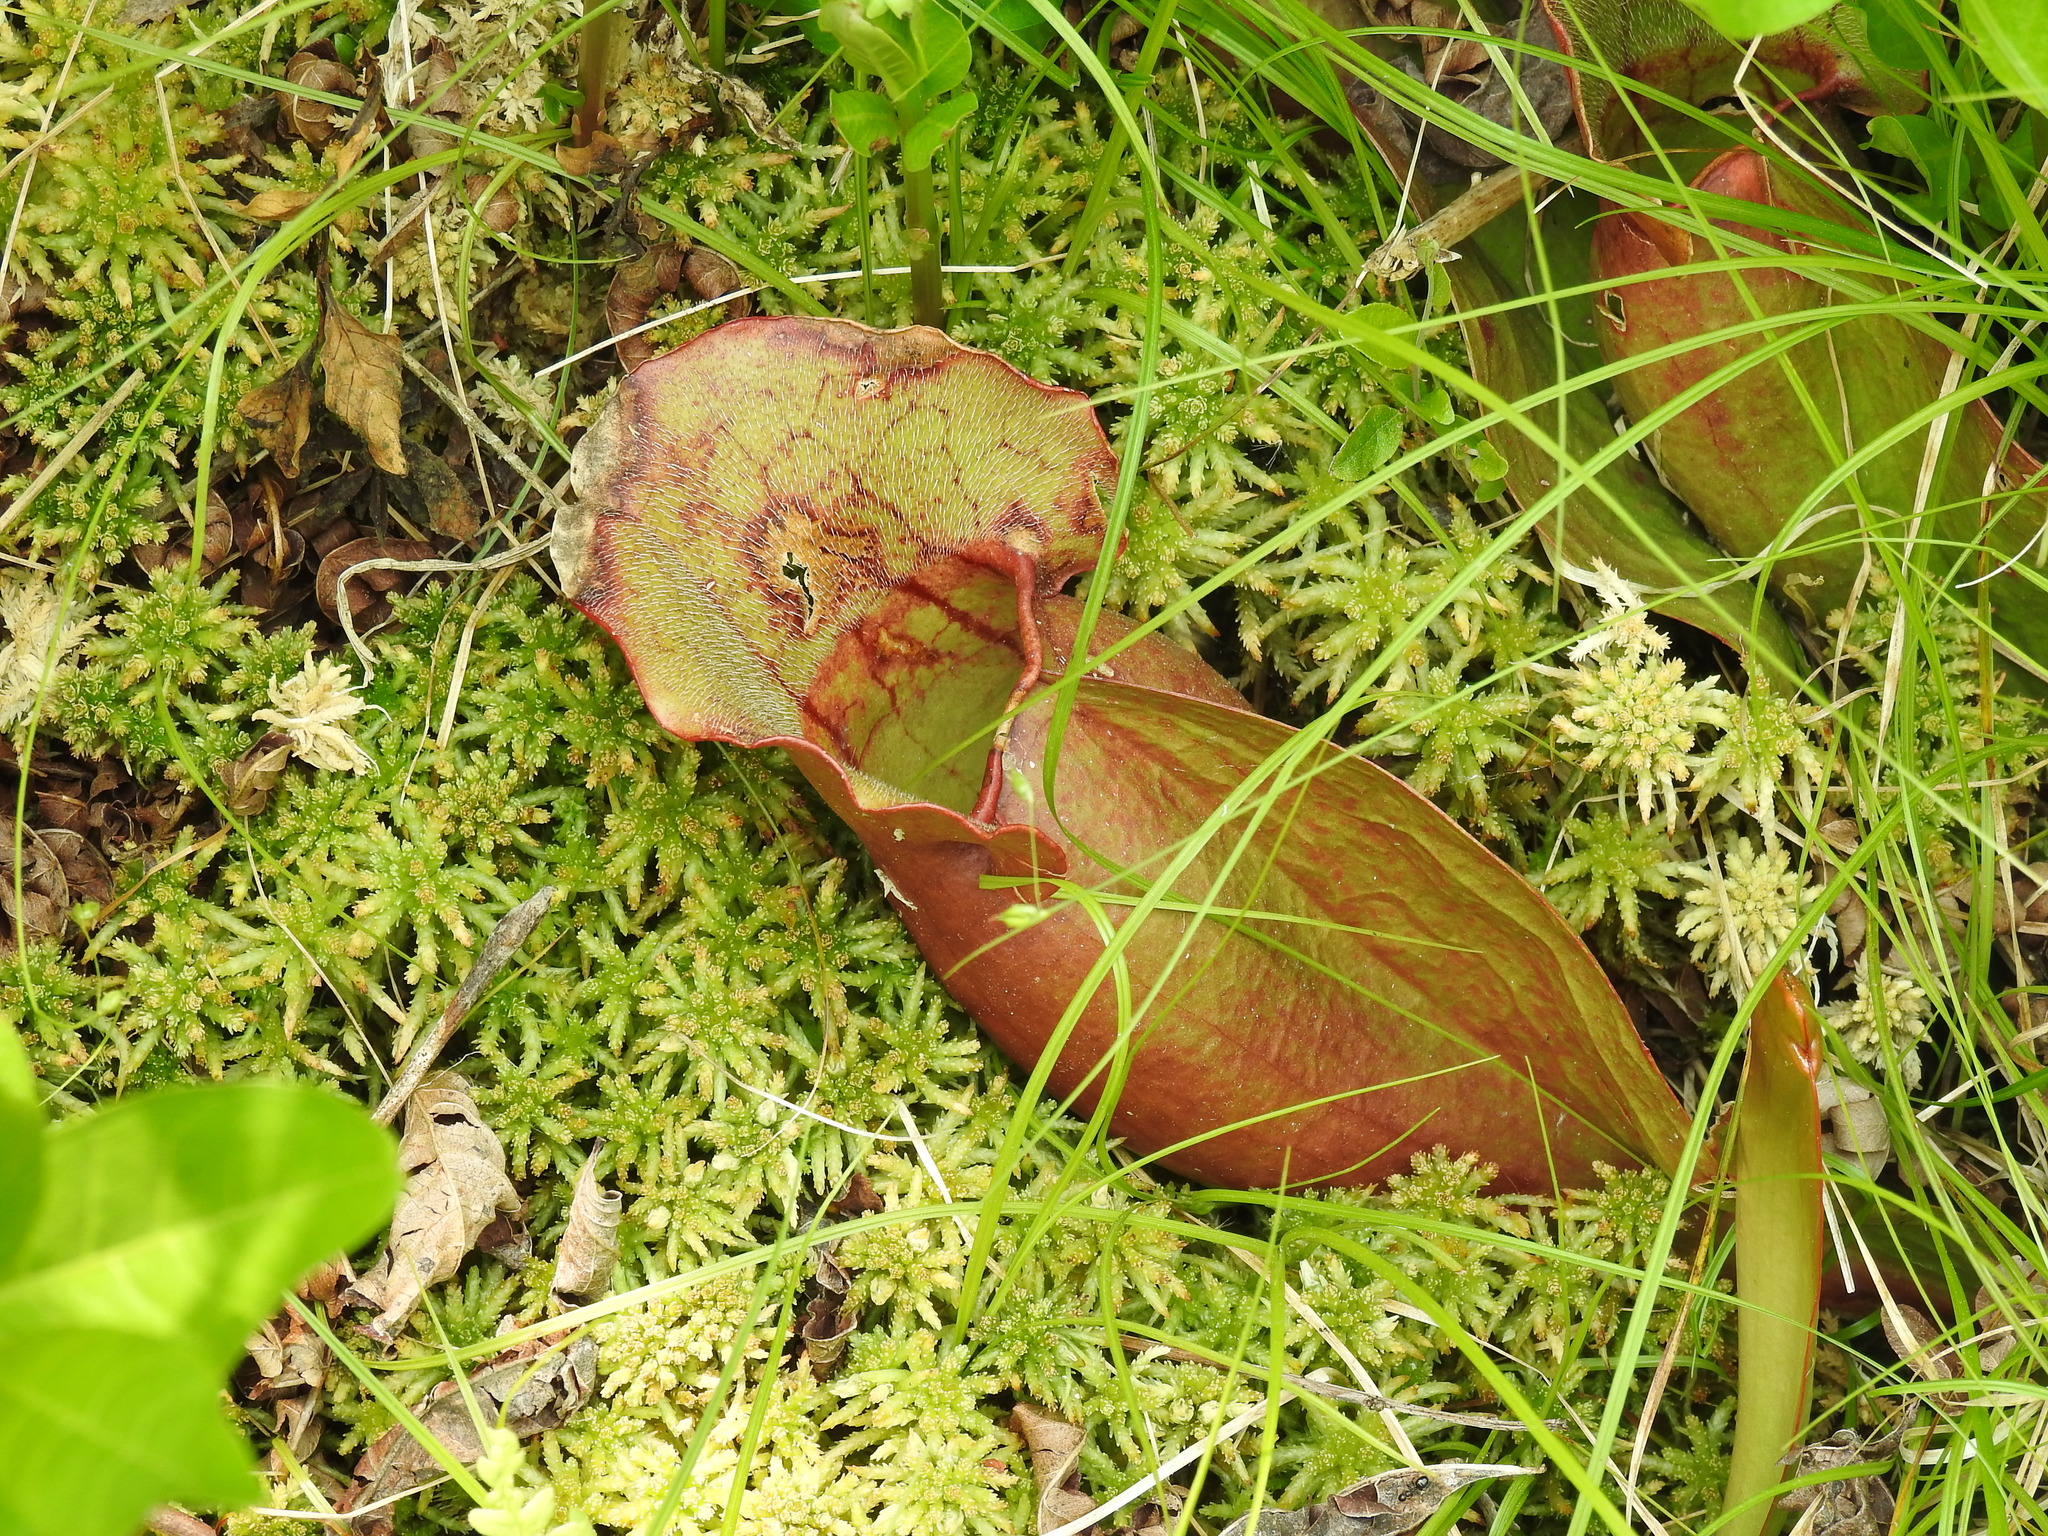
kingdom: Plantae
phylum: Tracheophyta
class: Magnoliopsida
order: Ericales
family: Sarraceniaceae
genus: Sarracenia
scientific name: Sarracenia purpurea
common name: Pitcherplant
